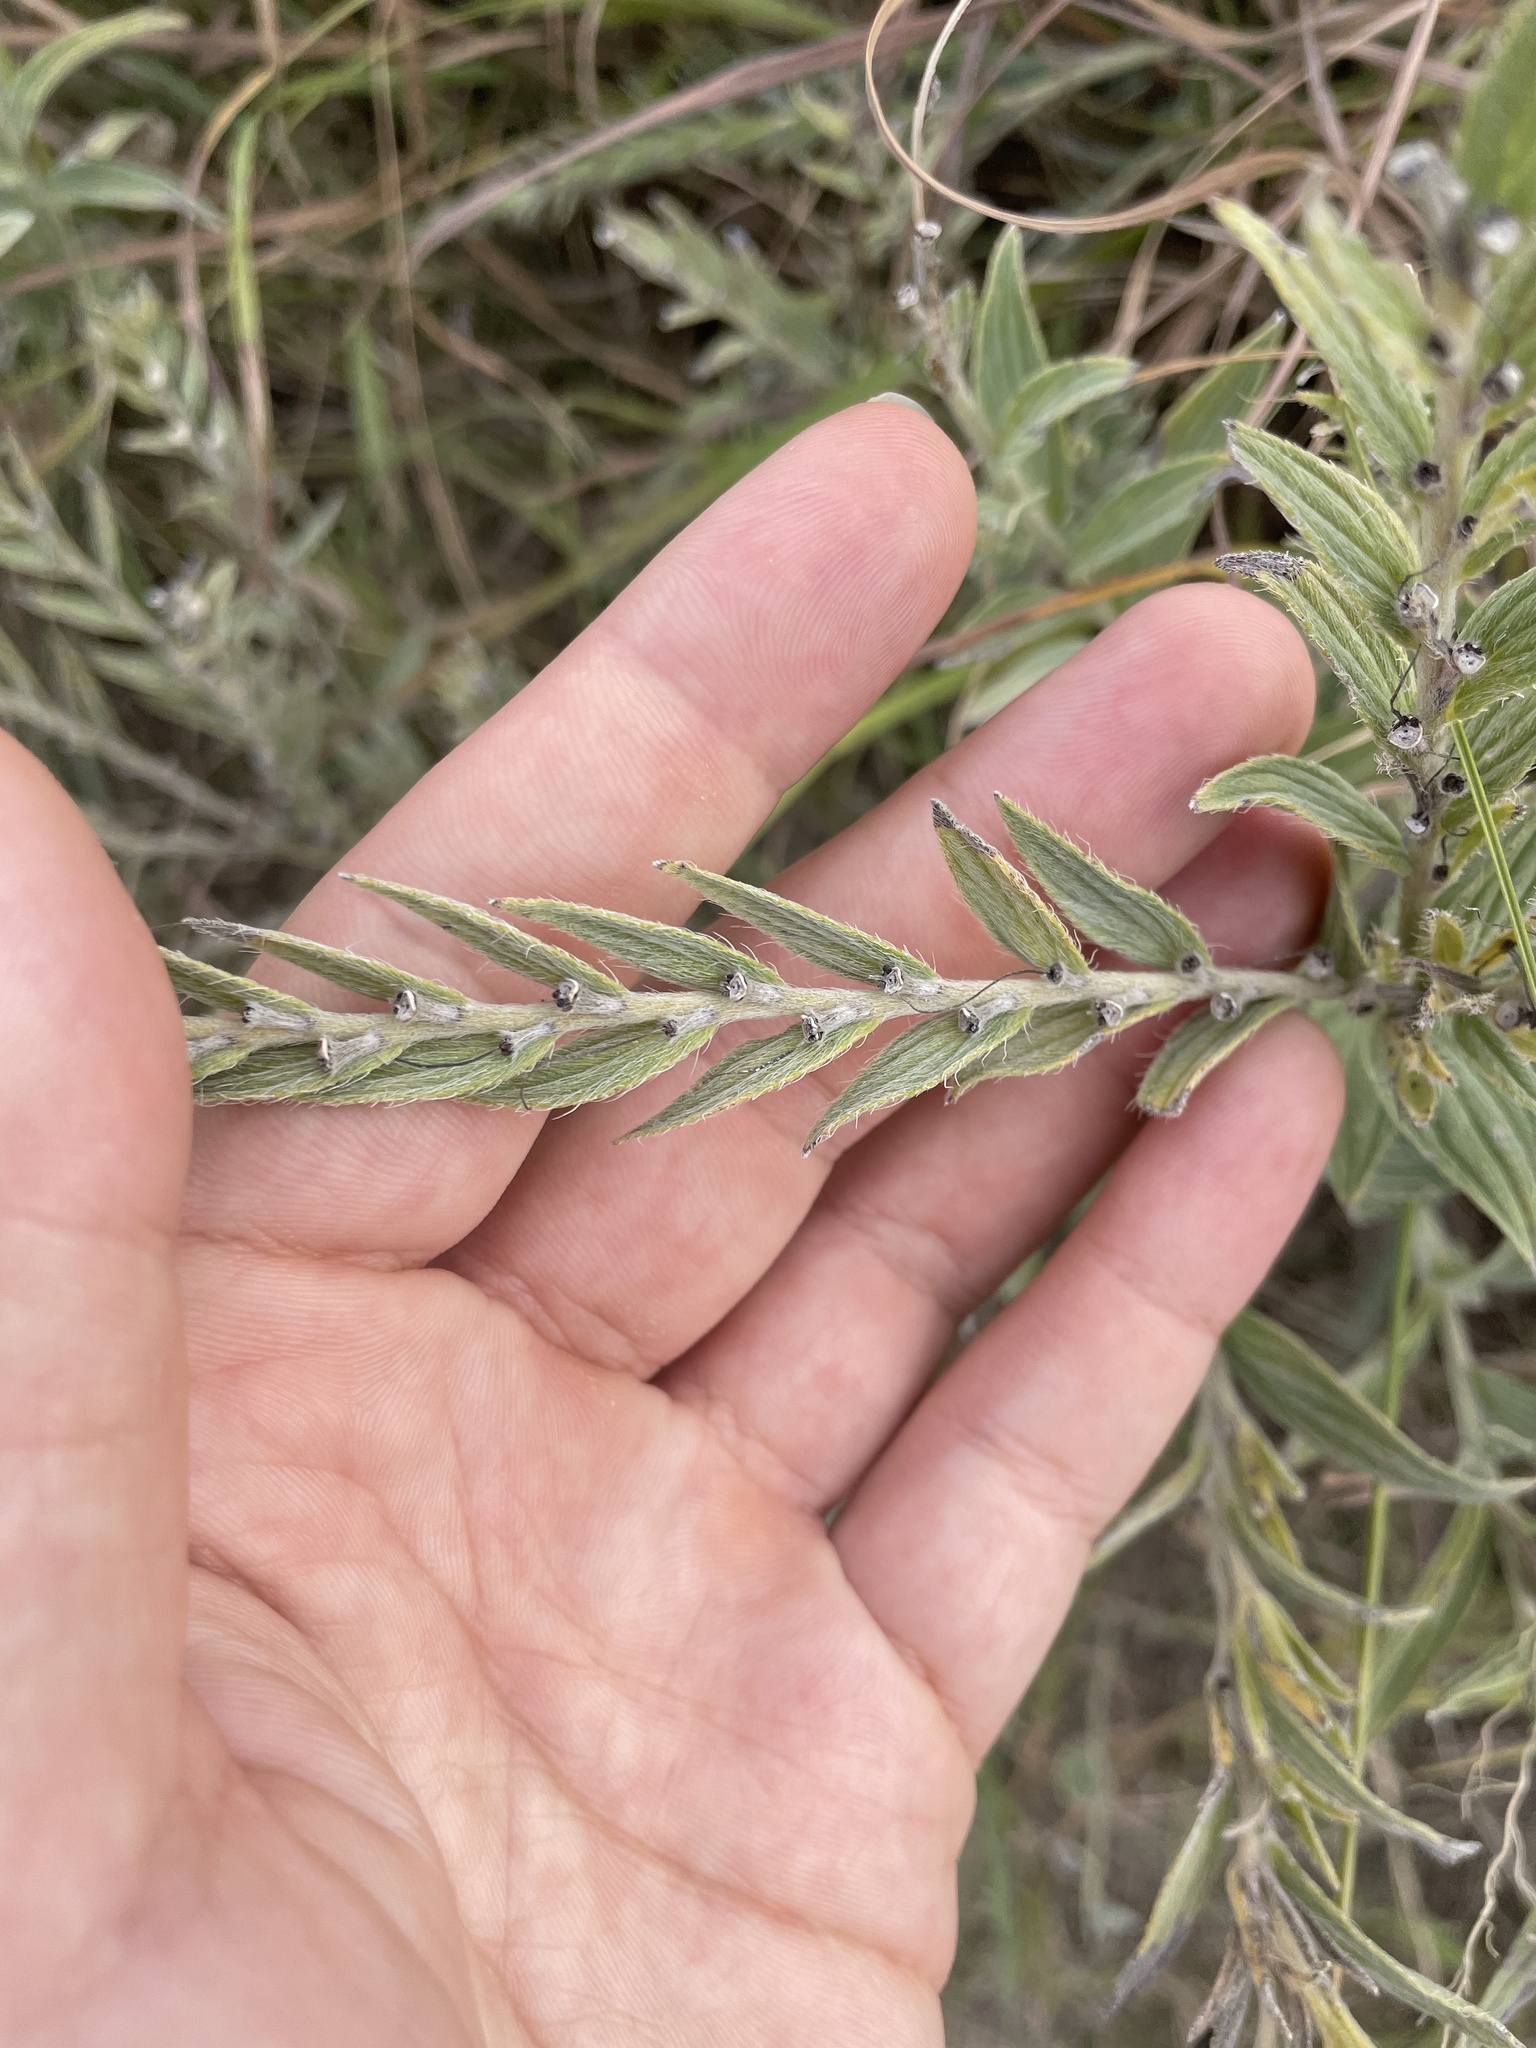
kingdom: Plantae
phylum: Tracheophyta
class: Magnoliopsida
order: Boraginales
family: Boraginaceae
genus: Lithospermum
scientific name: Lithospermum occidentale
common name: Western false gromwell
